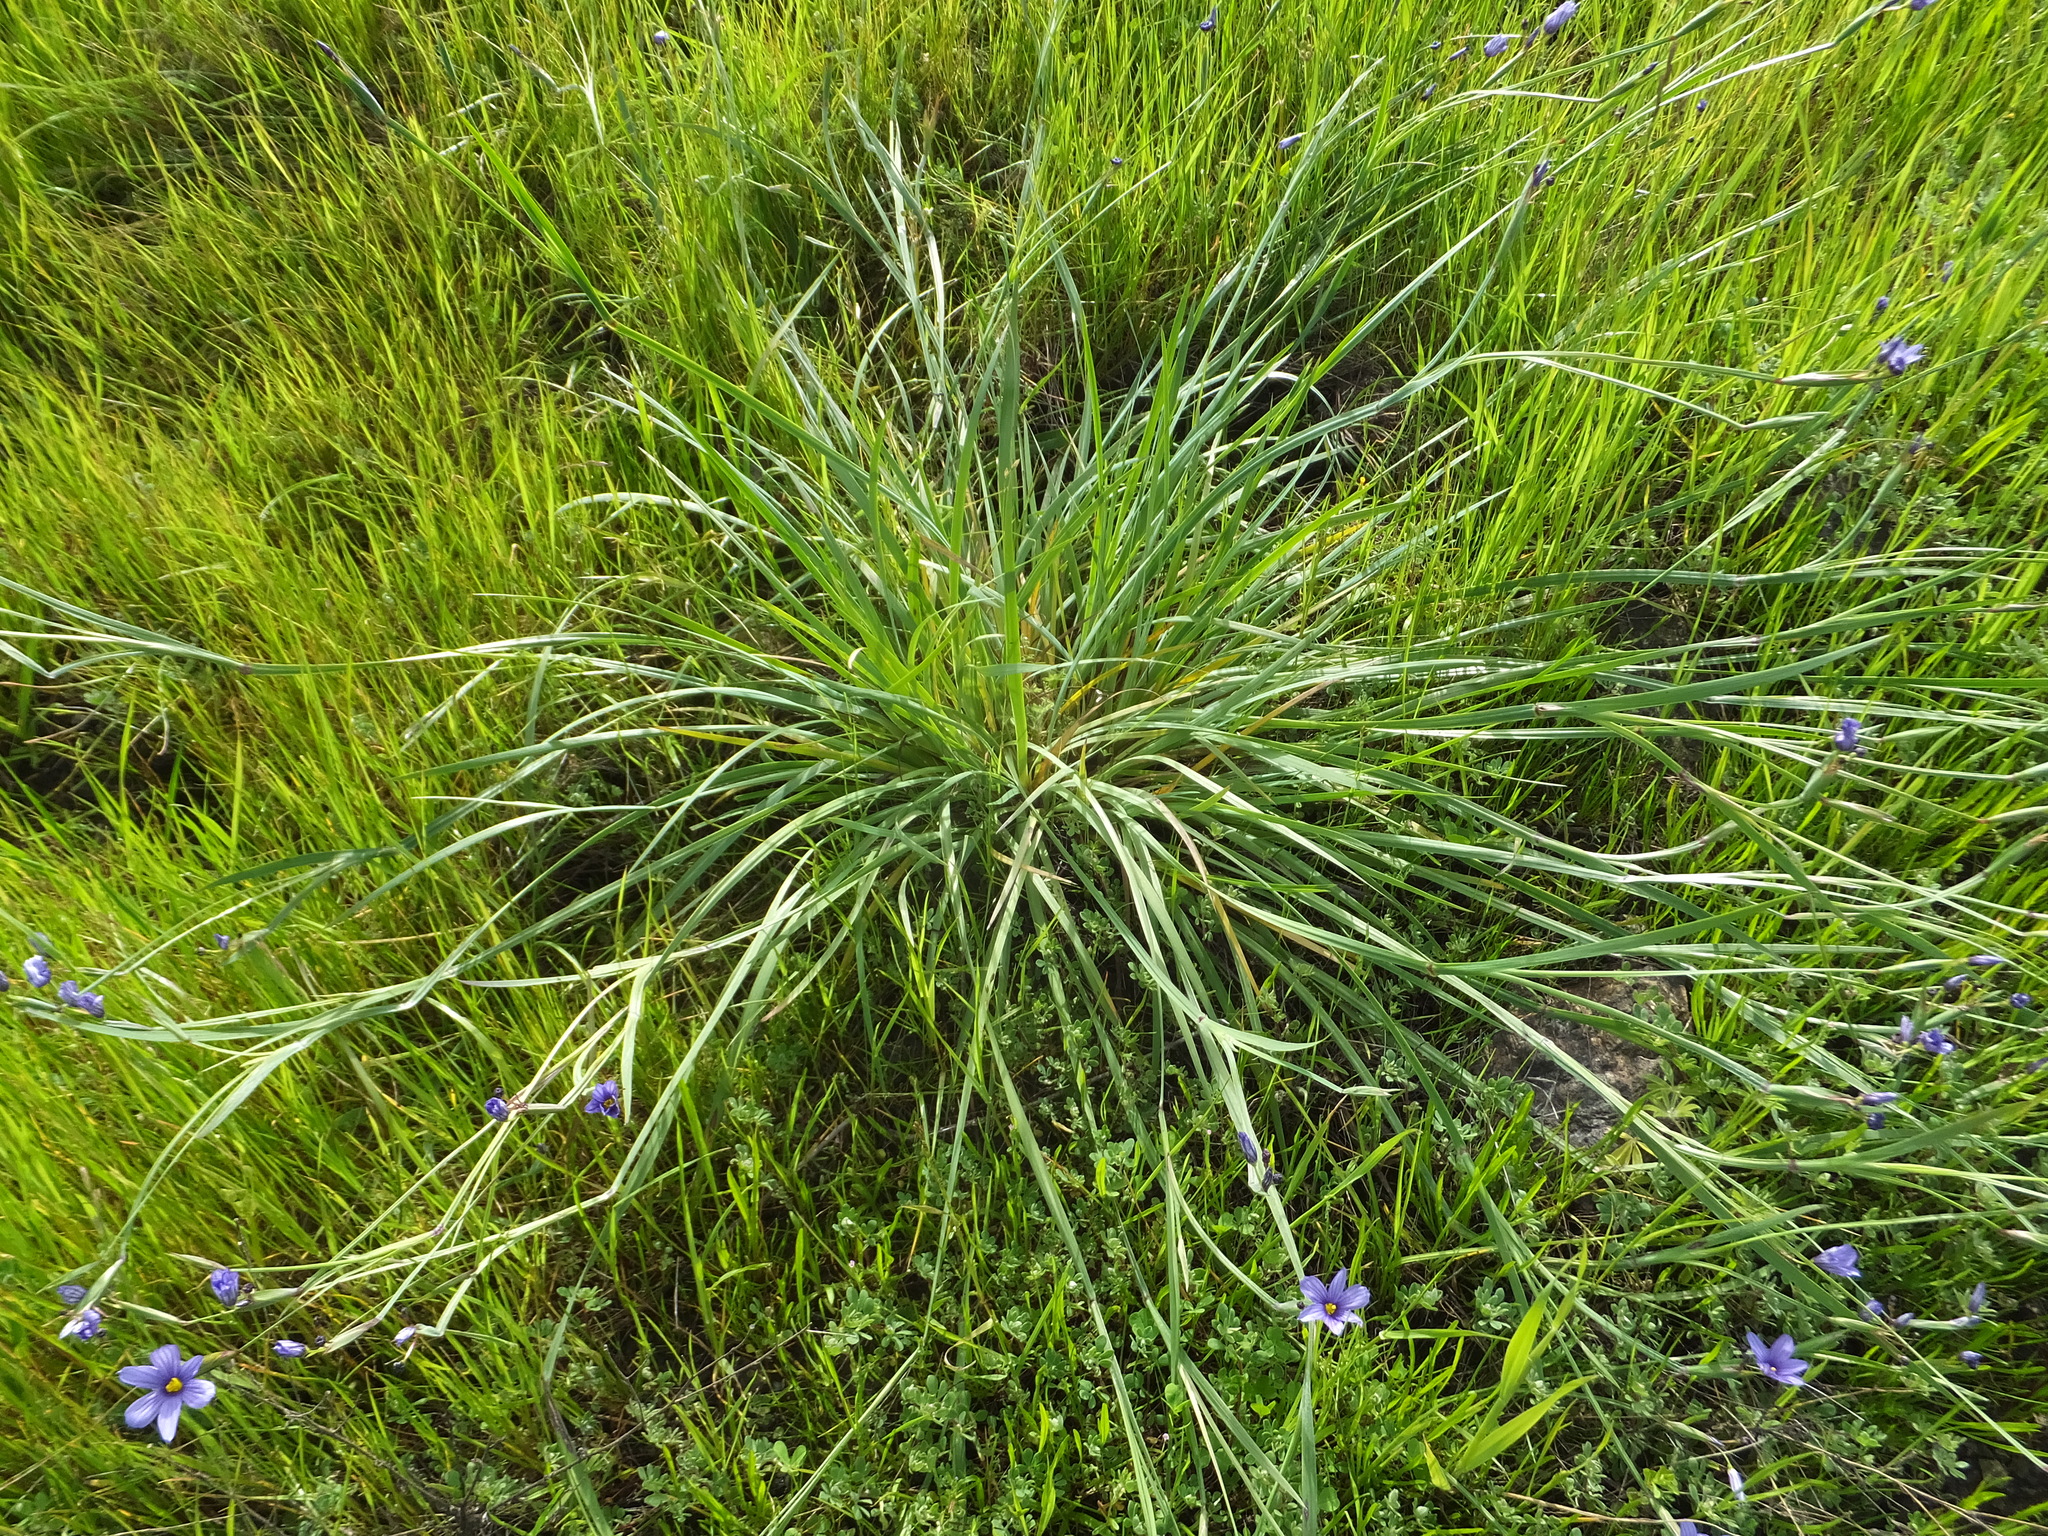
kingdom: Plantae
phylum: Tracheophyta
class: Liliopsida
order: Asparagales
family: Iridaceae
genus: Sisyrinchium
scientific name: Sisyrinchium bellum
